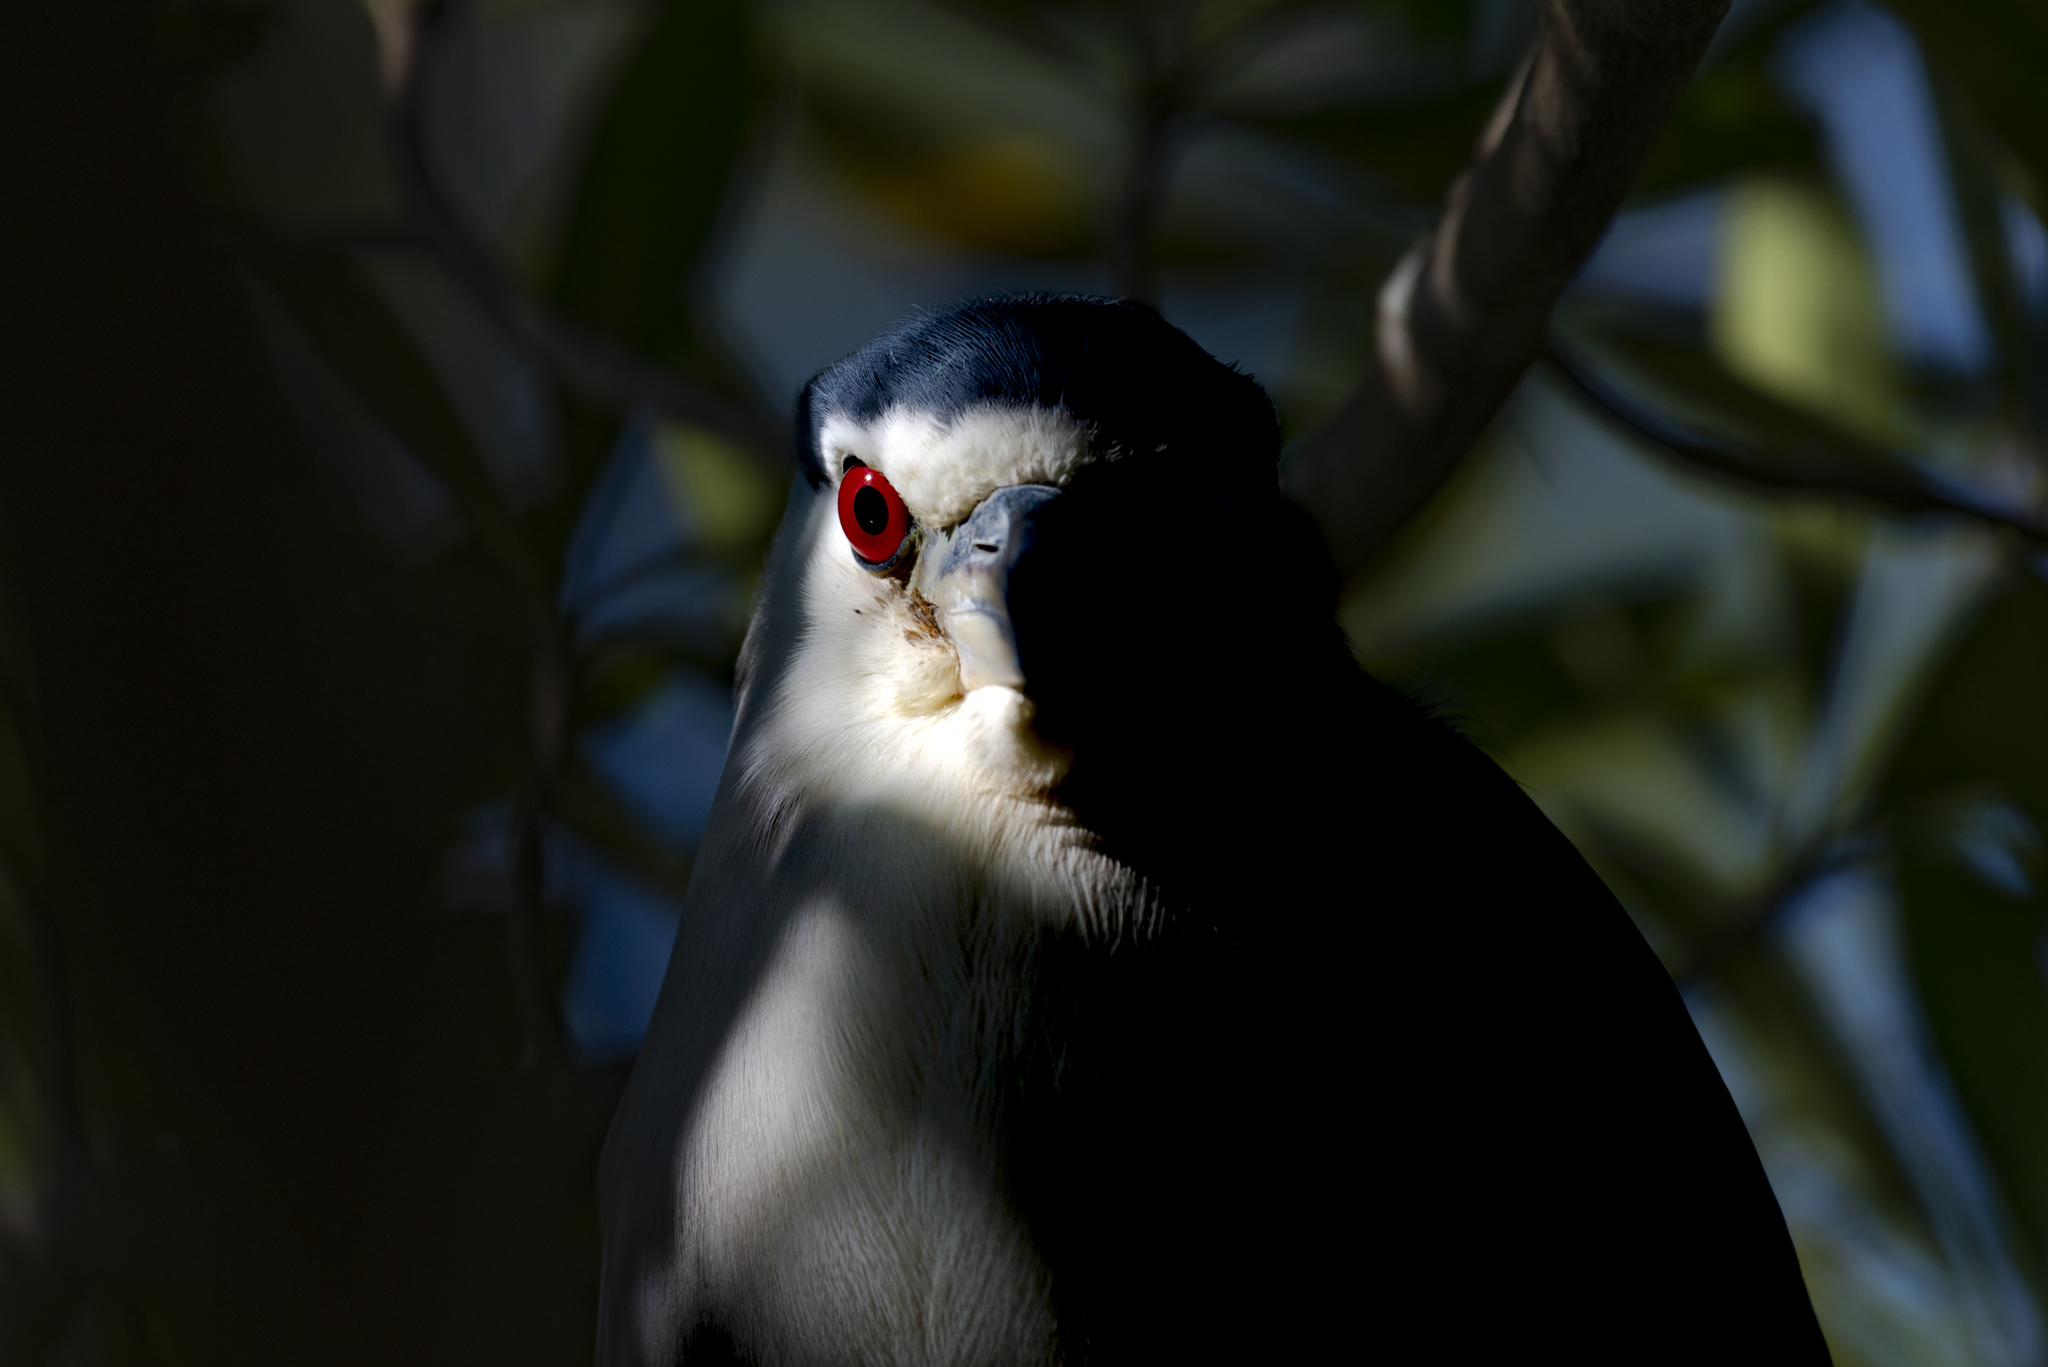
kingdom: Animalia
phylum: Chordata
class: Aves
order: Pelecaniformes
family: Ardeidae
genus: Nycticorax
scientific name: Nycticorax nycticorax
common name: Black-crowned night heron
